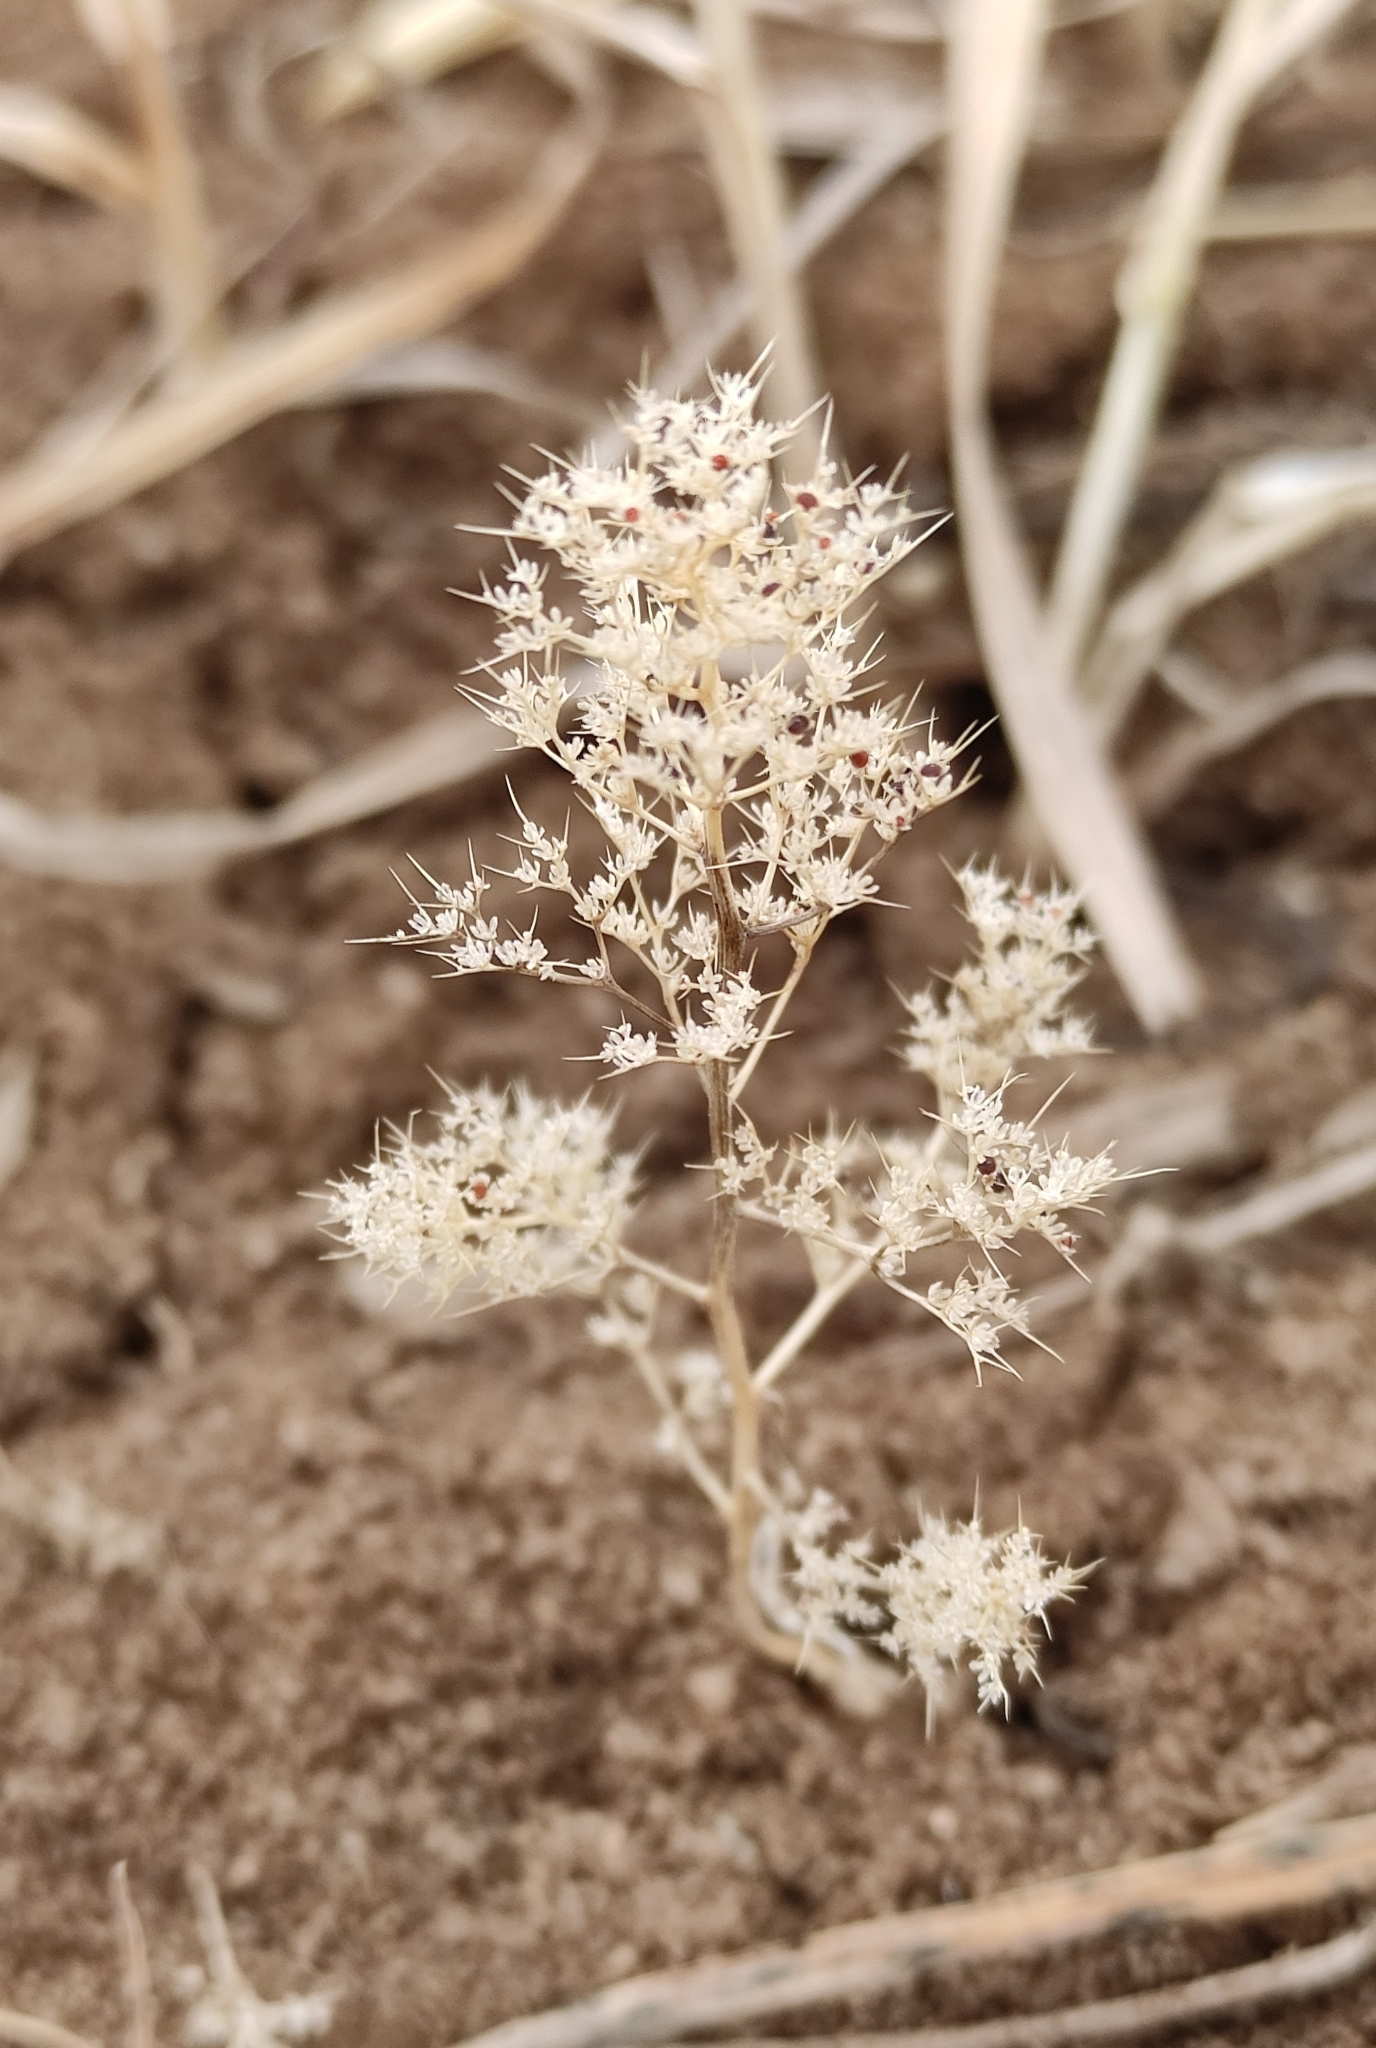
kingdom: Plantae
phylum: Tracheophyta
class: Magnoliopsida
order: Caryophyllales
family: Amaranthaceae
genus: Teloxys
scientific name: Teloxys aristata
